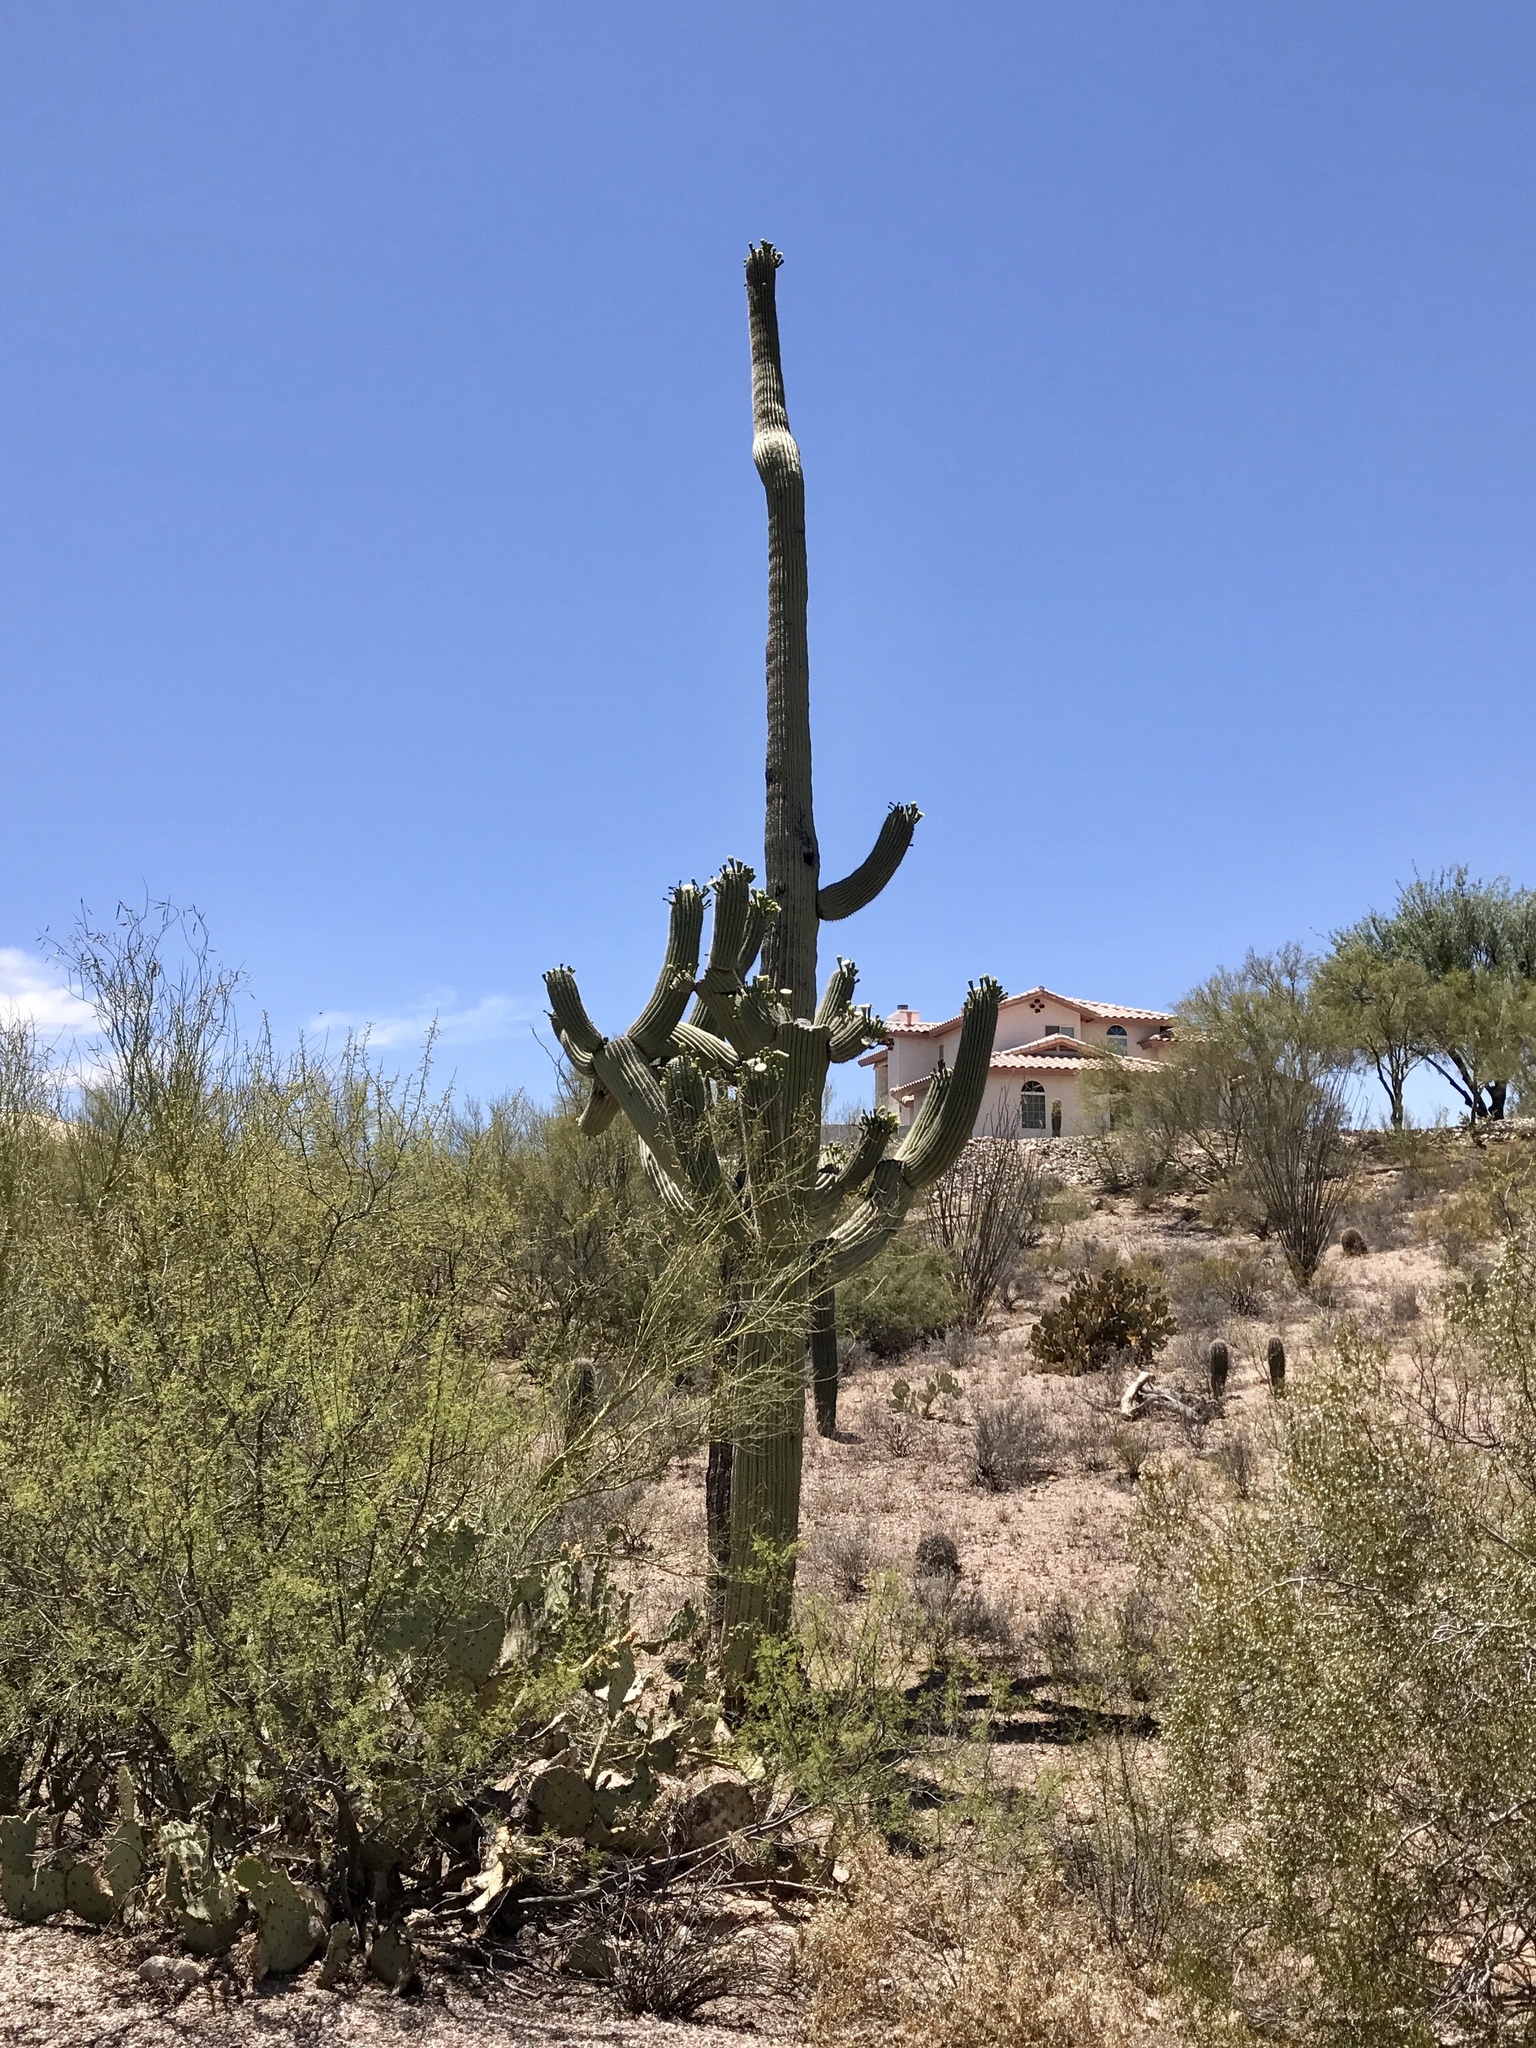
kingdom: Plantae
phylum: Tracheophyta
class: Magnoliopsida
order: Caryophyllales
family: Cactaceae
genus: Carnegiea
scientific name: Carnegiea gigantea
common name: Saguaro
